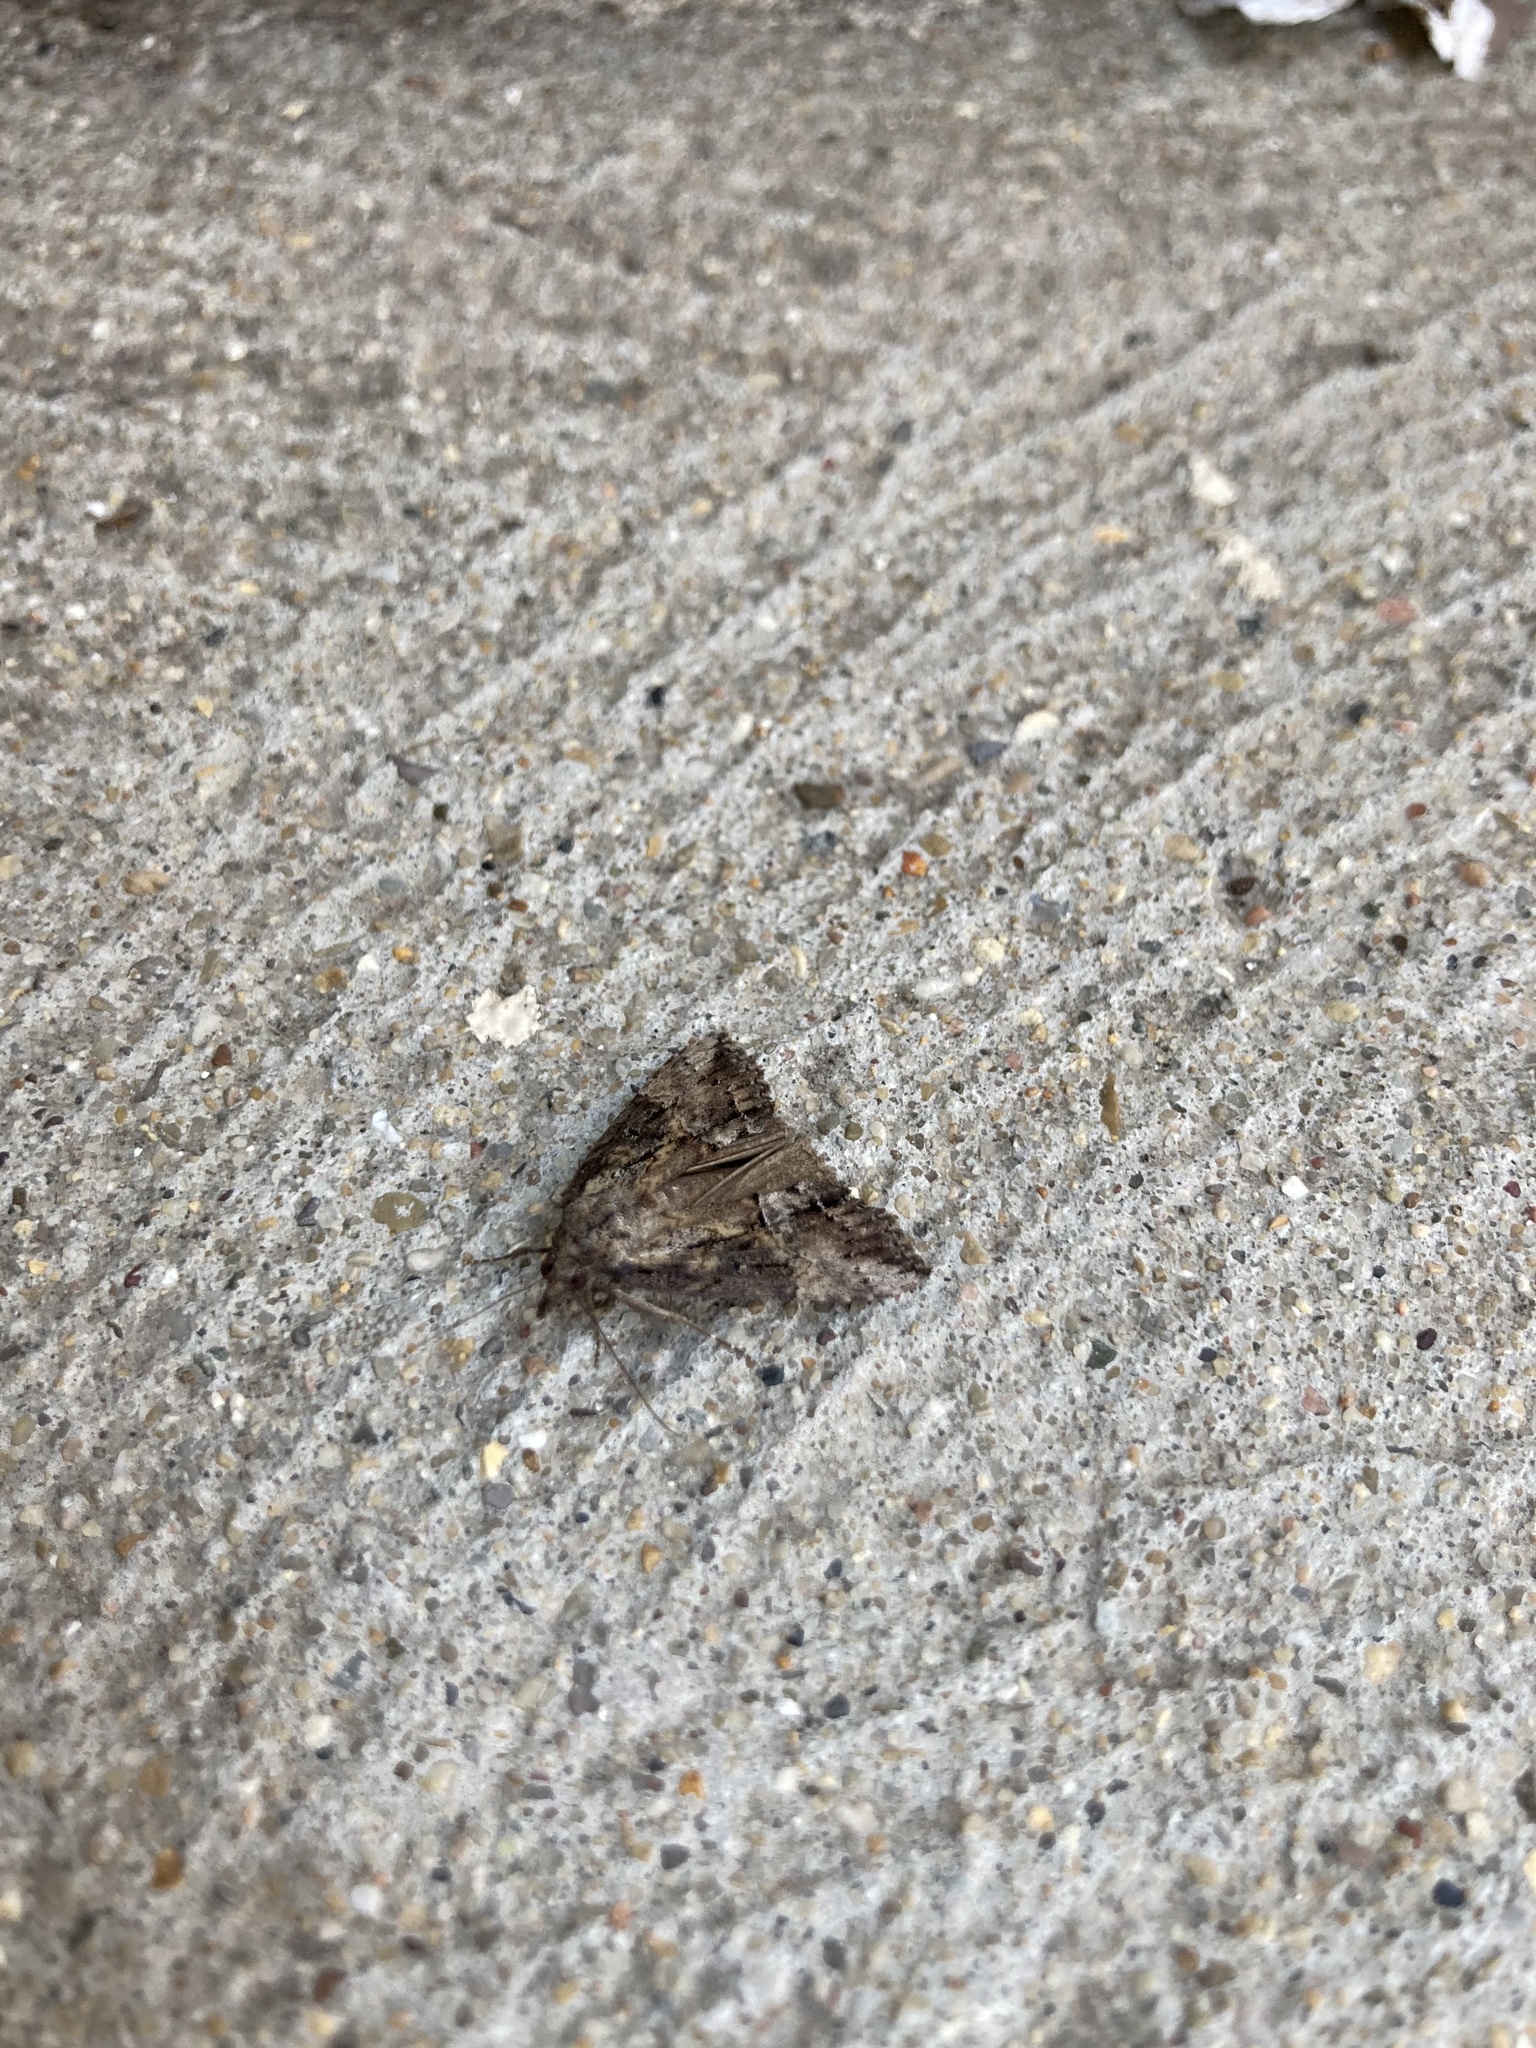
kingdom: Animalia
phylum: Arthropoda
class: Insecta
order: Lepidoptera
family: Erebidae
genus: Hypena
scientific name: Hypena scabra
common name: Green cloverworm
